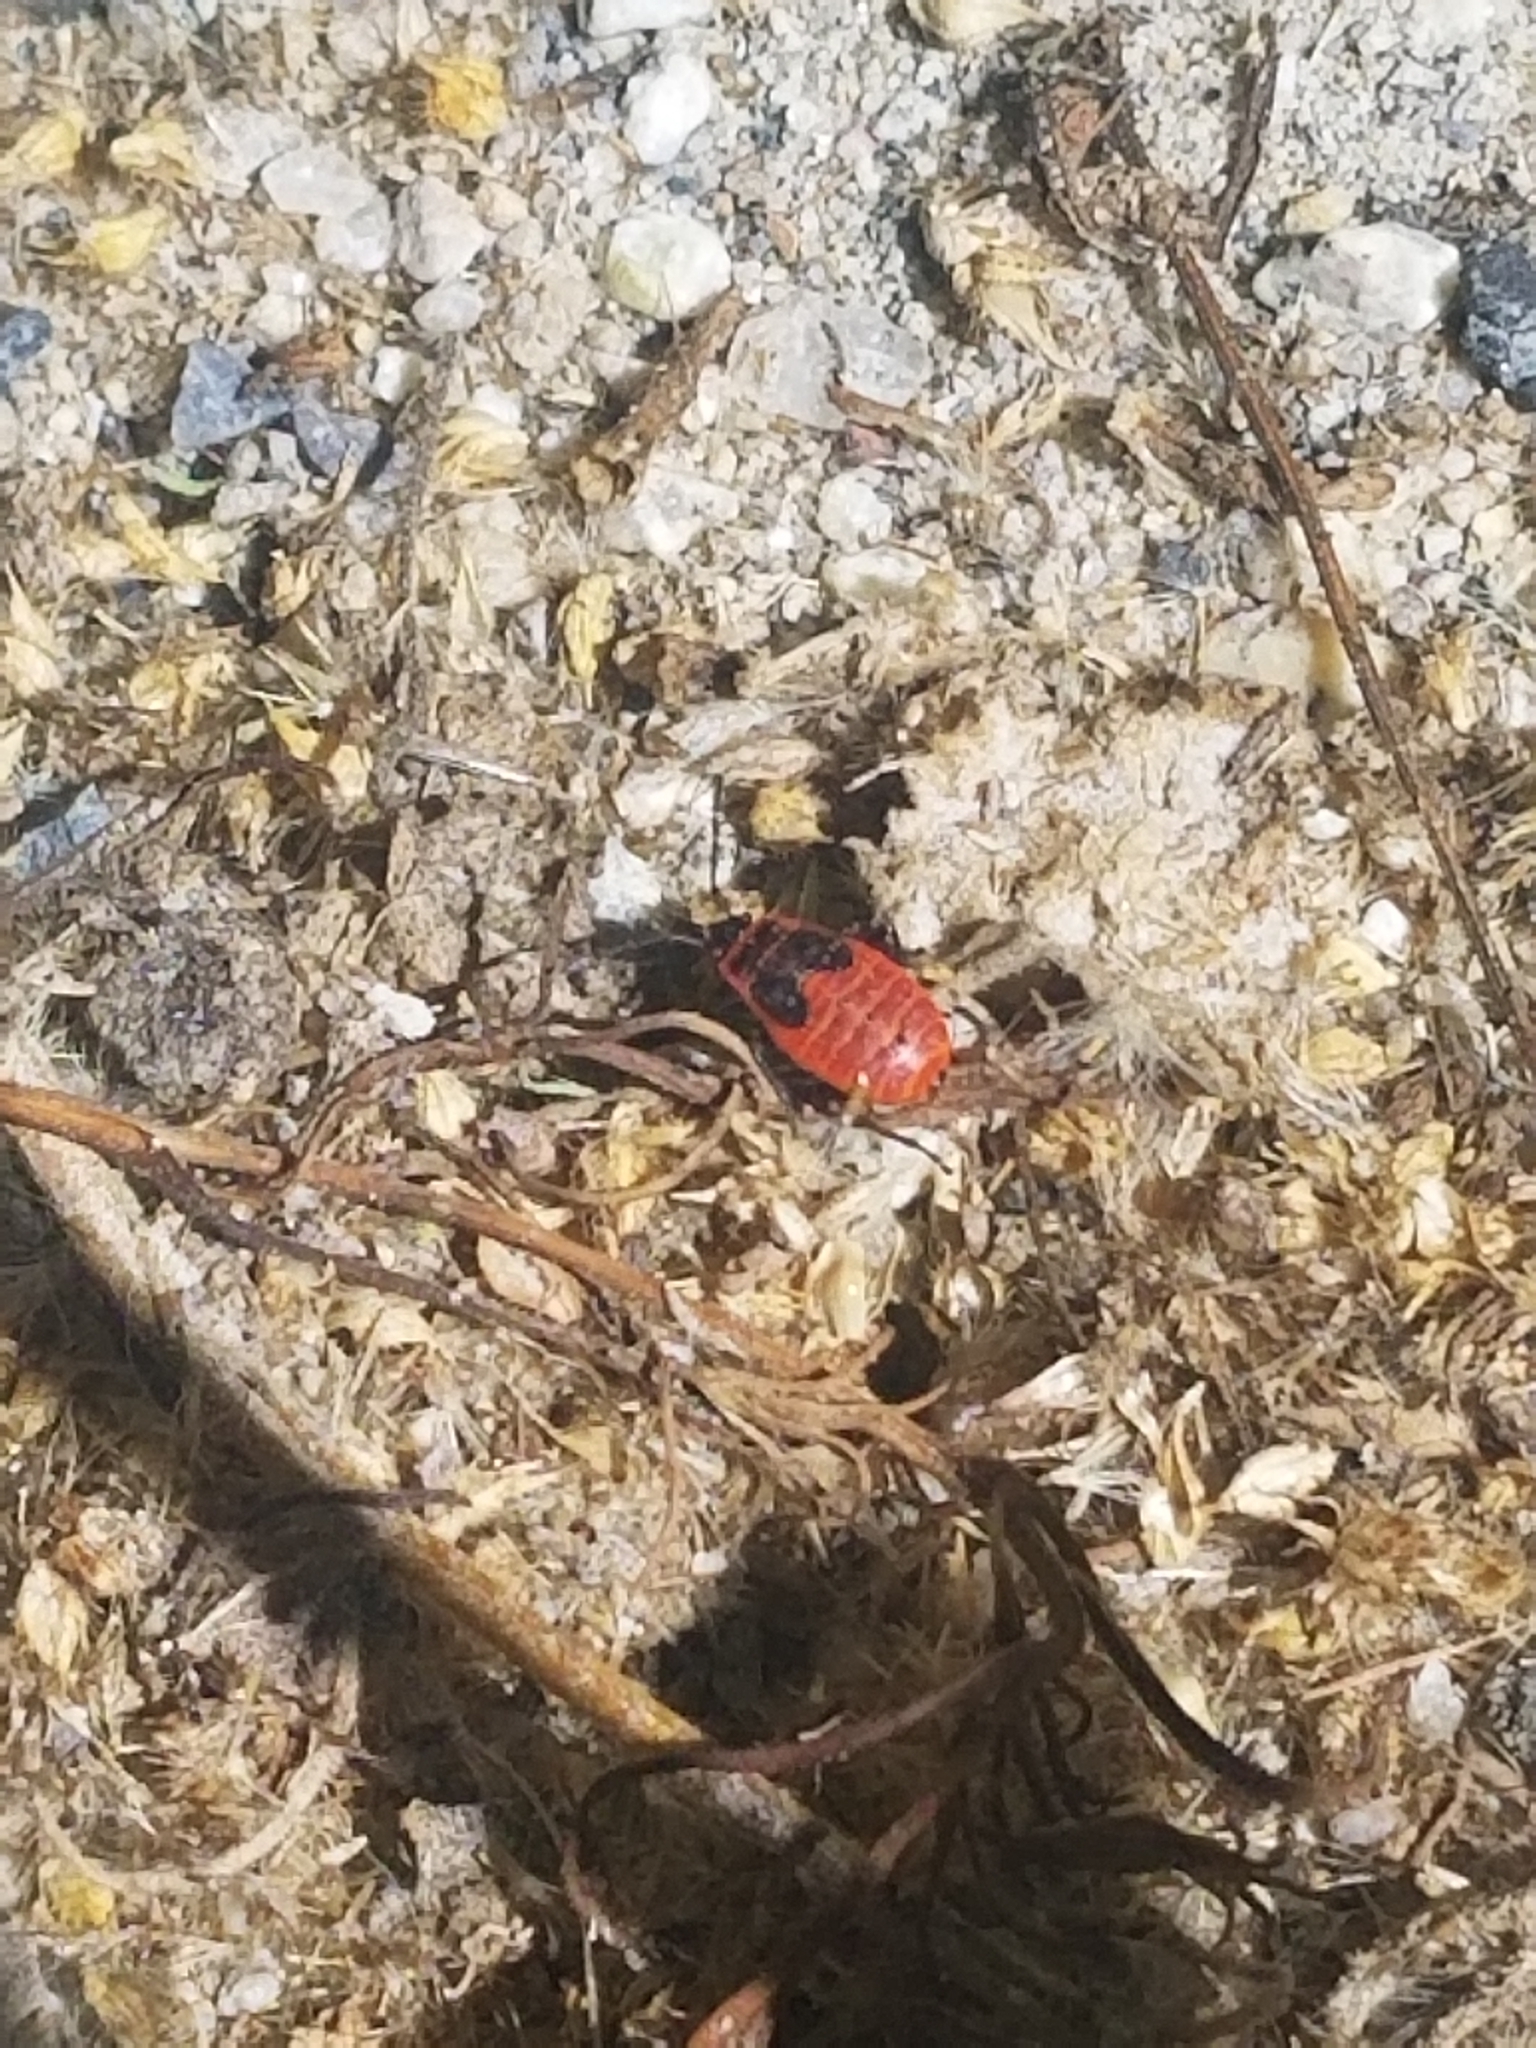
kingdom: Animalia
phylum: Arthropoda
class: Insecta
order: Hemiptera
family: Pyrrhocoridae
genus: Pyrrhocoris
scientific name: Pyrrhocoris apterus
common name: Firebug
